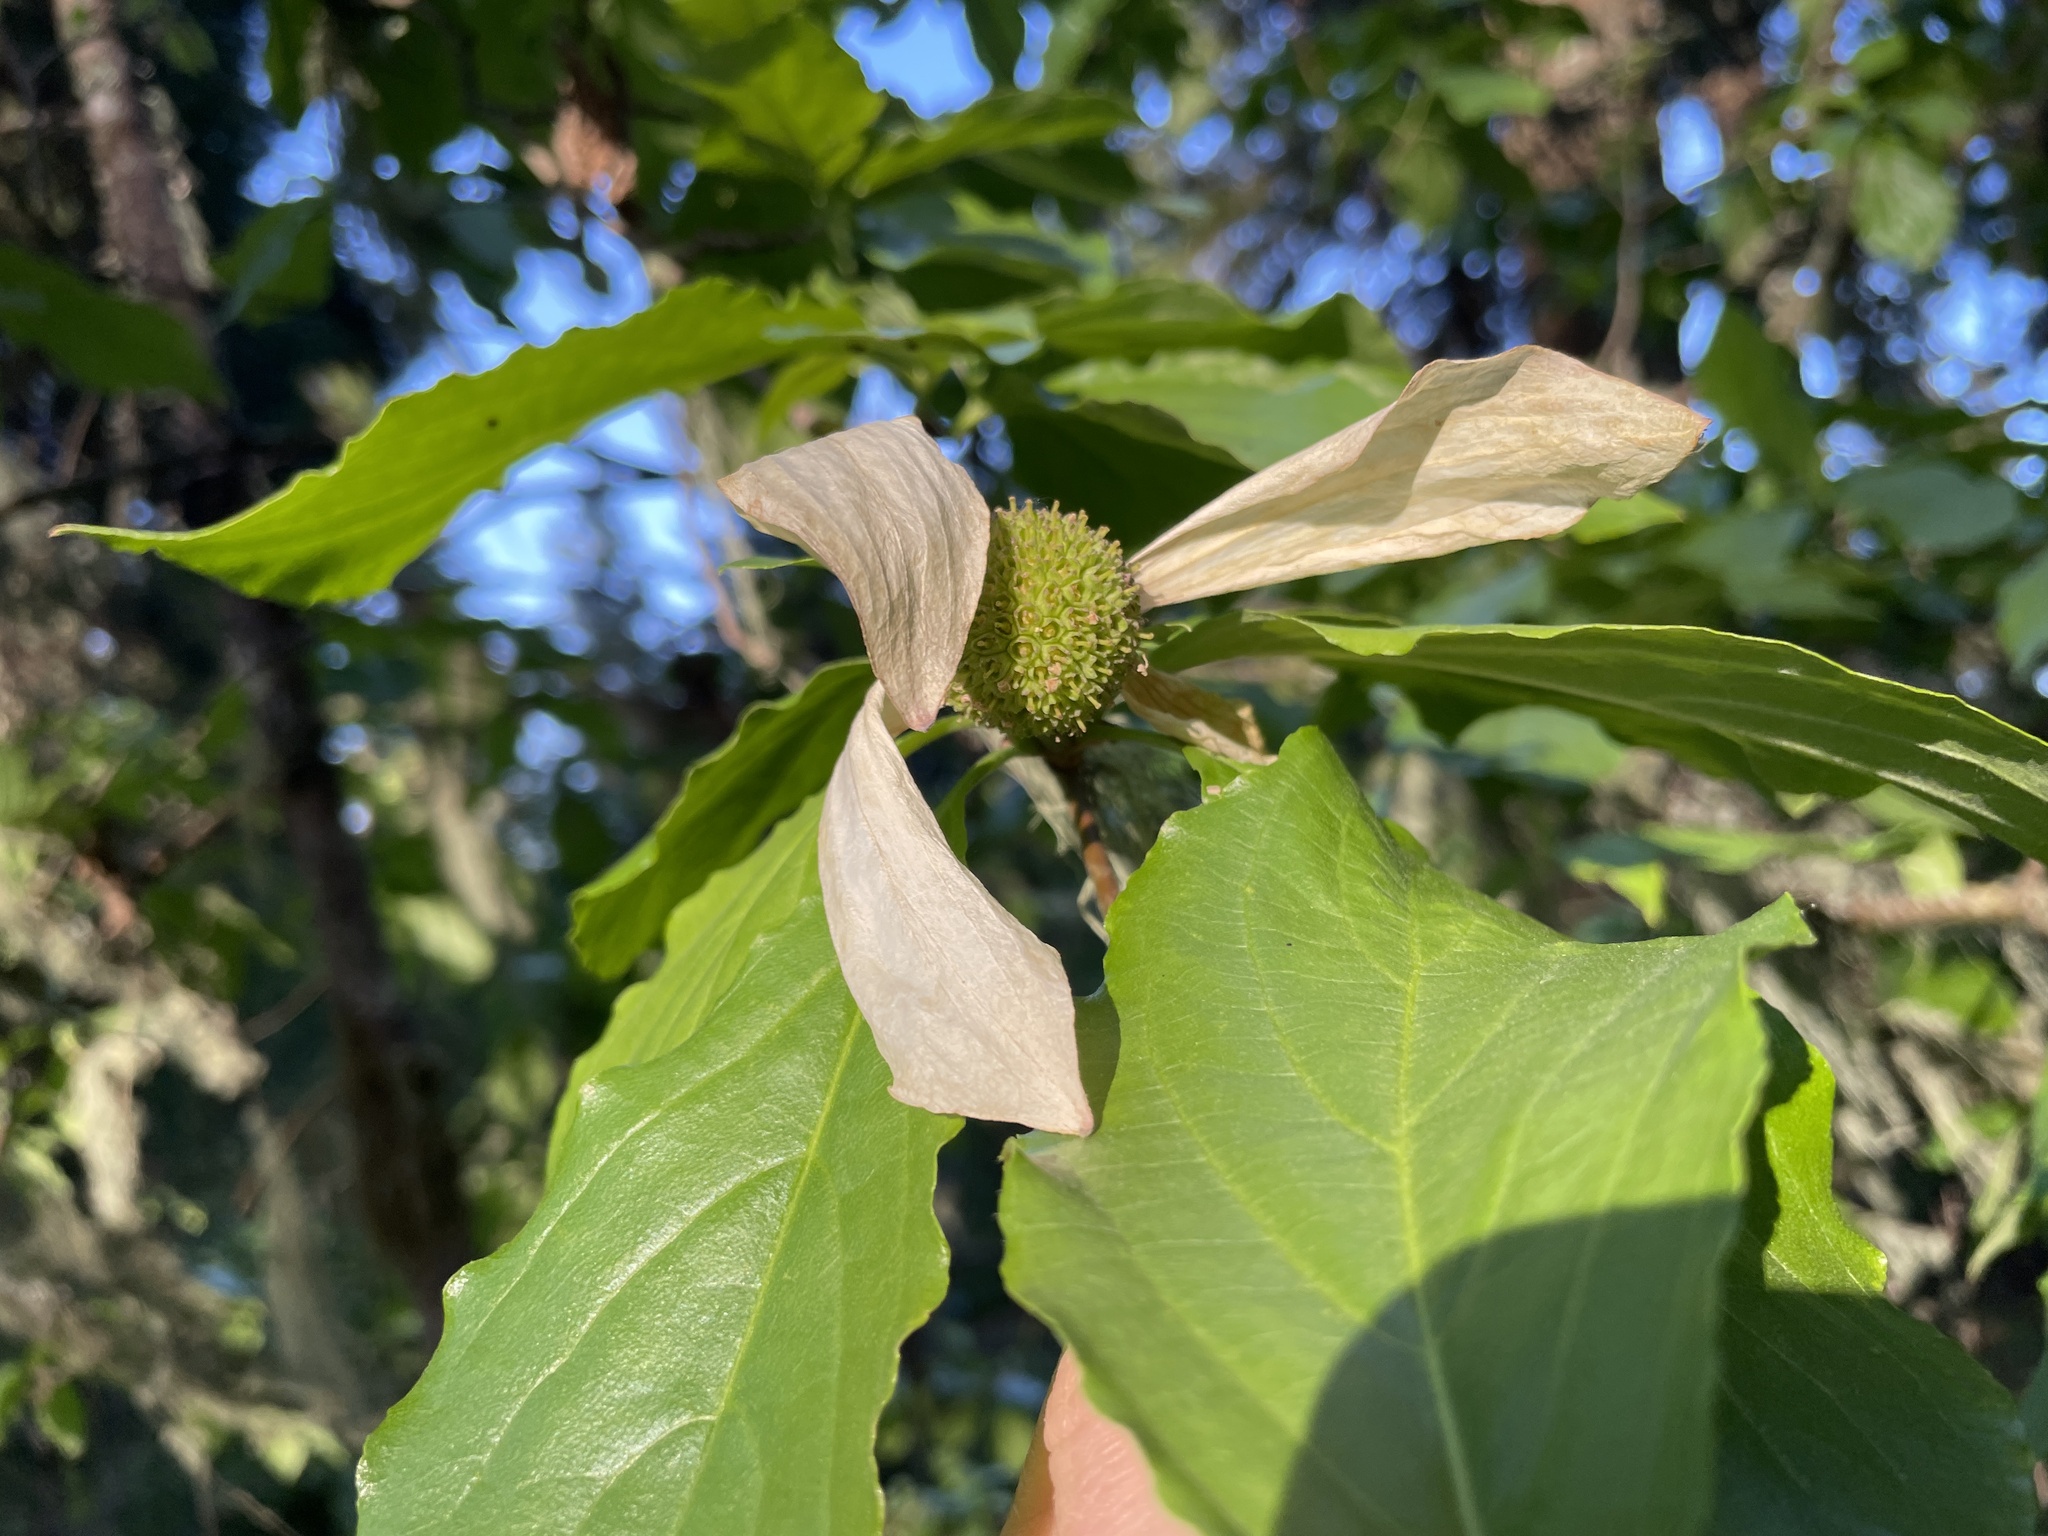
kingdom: Plantae
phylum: Tracheophyta
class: Magnoliopsida
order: Cornales
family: Cornaceae
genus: Cornus
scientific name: Cornus nuttallii
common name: Pacific dogwood
